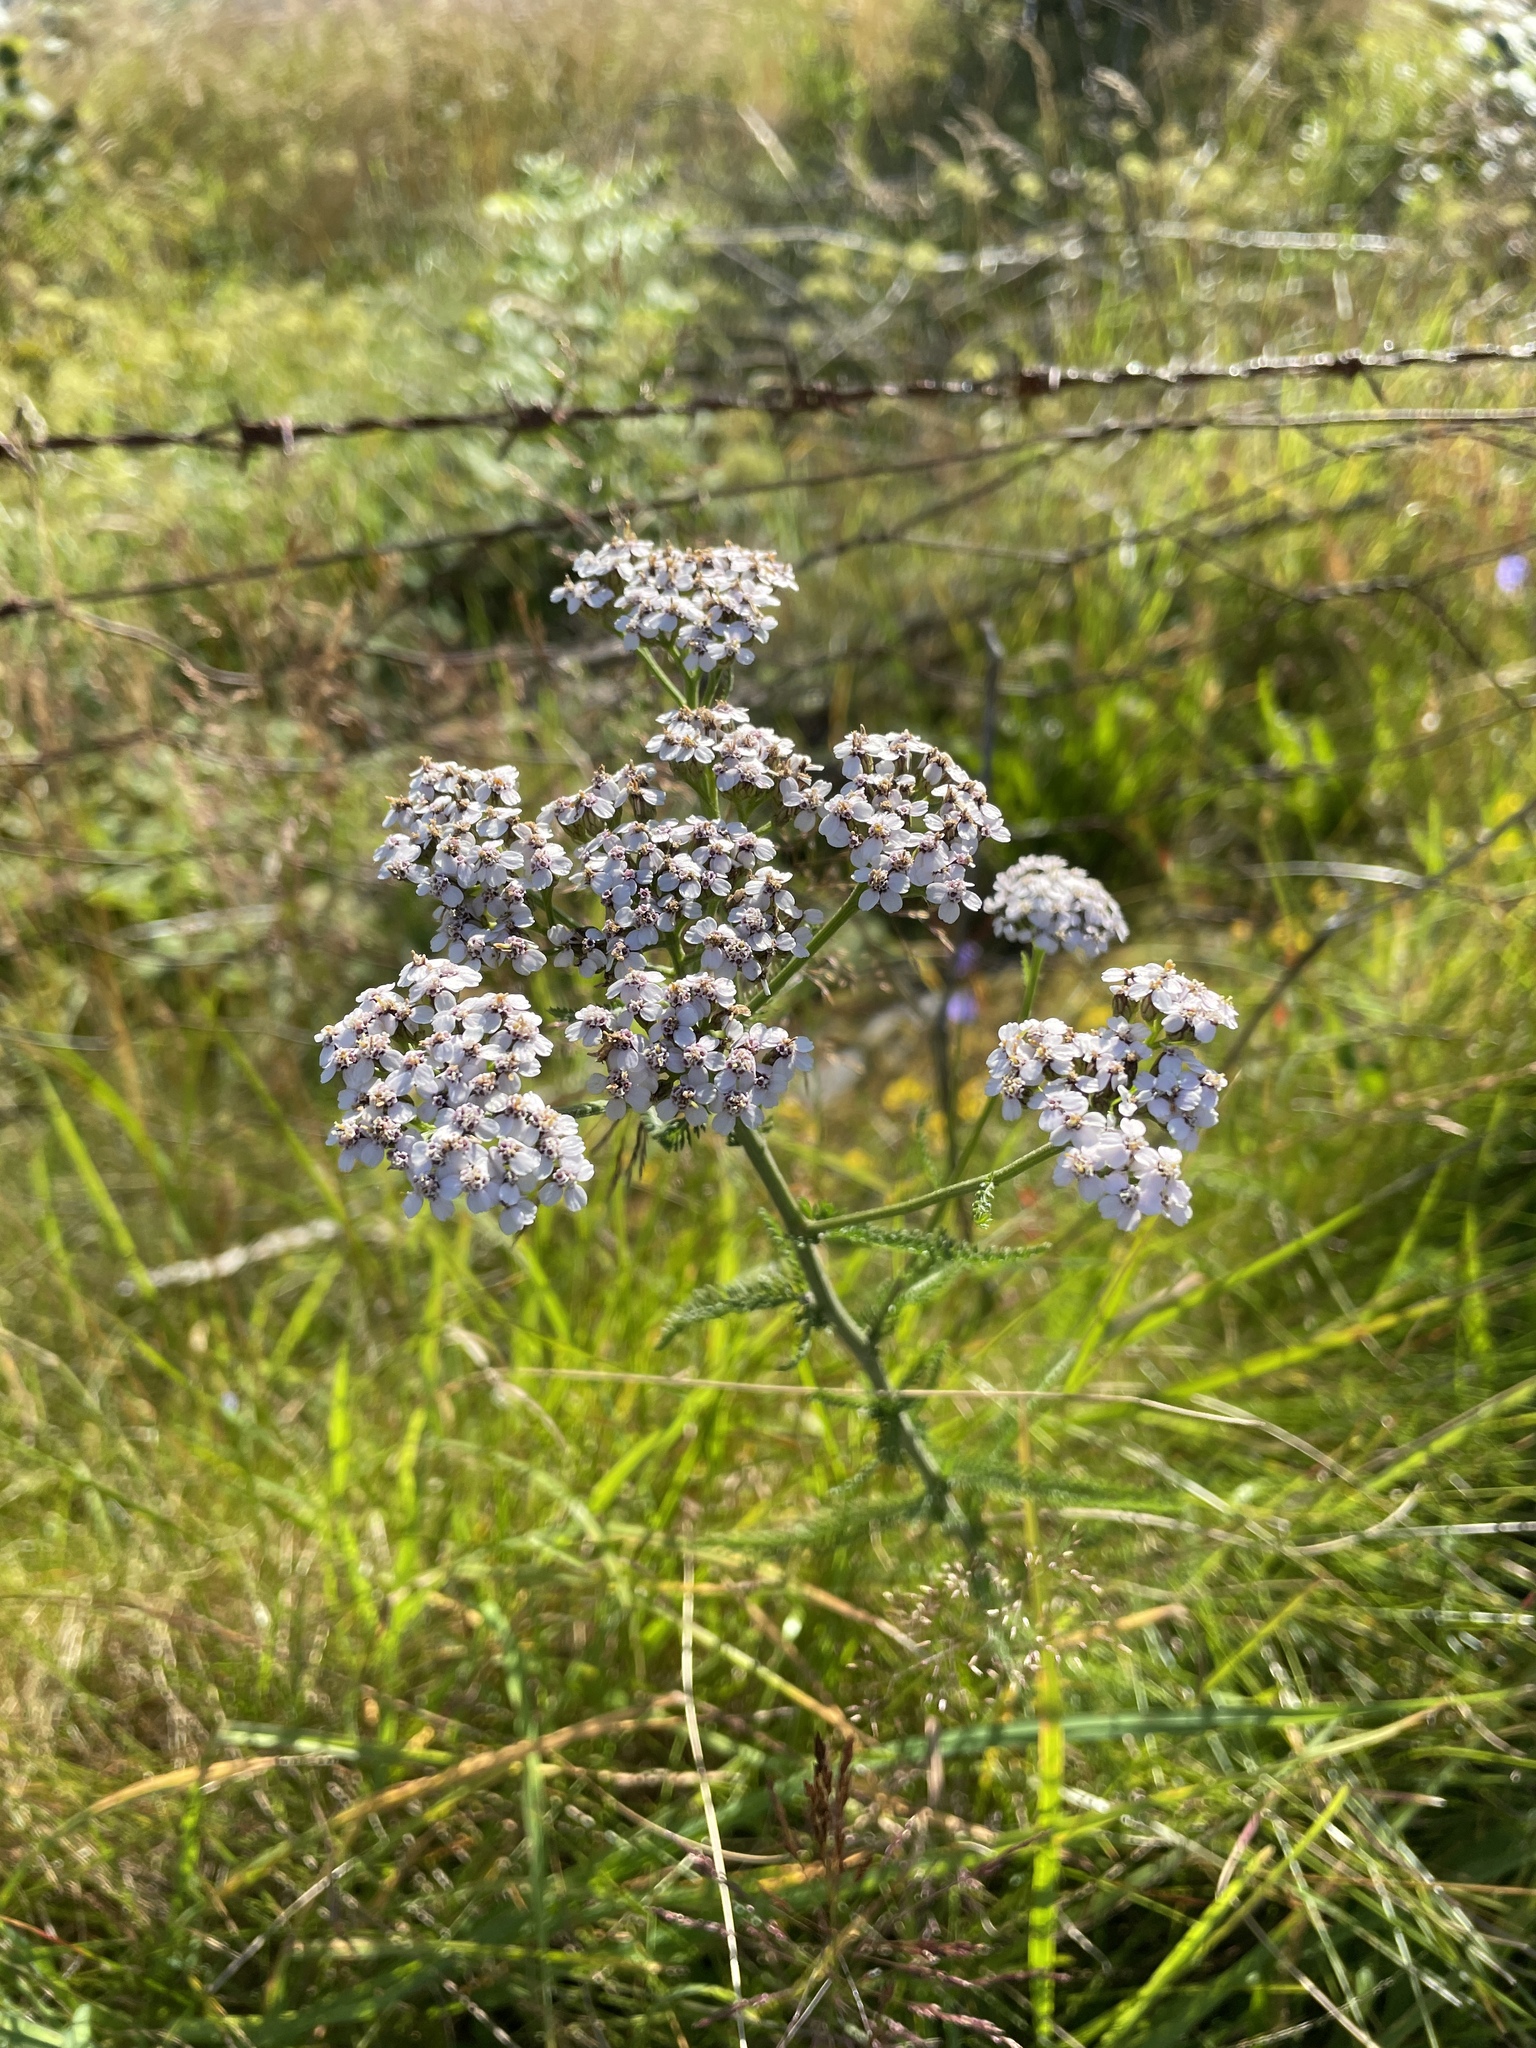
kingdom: Plantae
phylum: Tracheophyta
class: Magnoliopsida
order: Asterales
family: Asteraceae
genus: Achillea
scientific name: Achillea millefolium
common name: Yarrow
